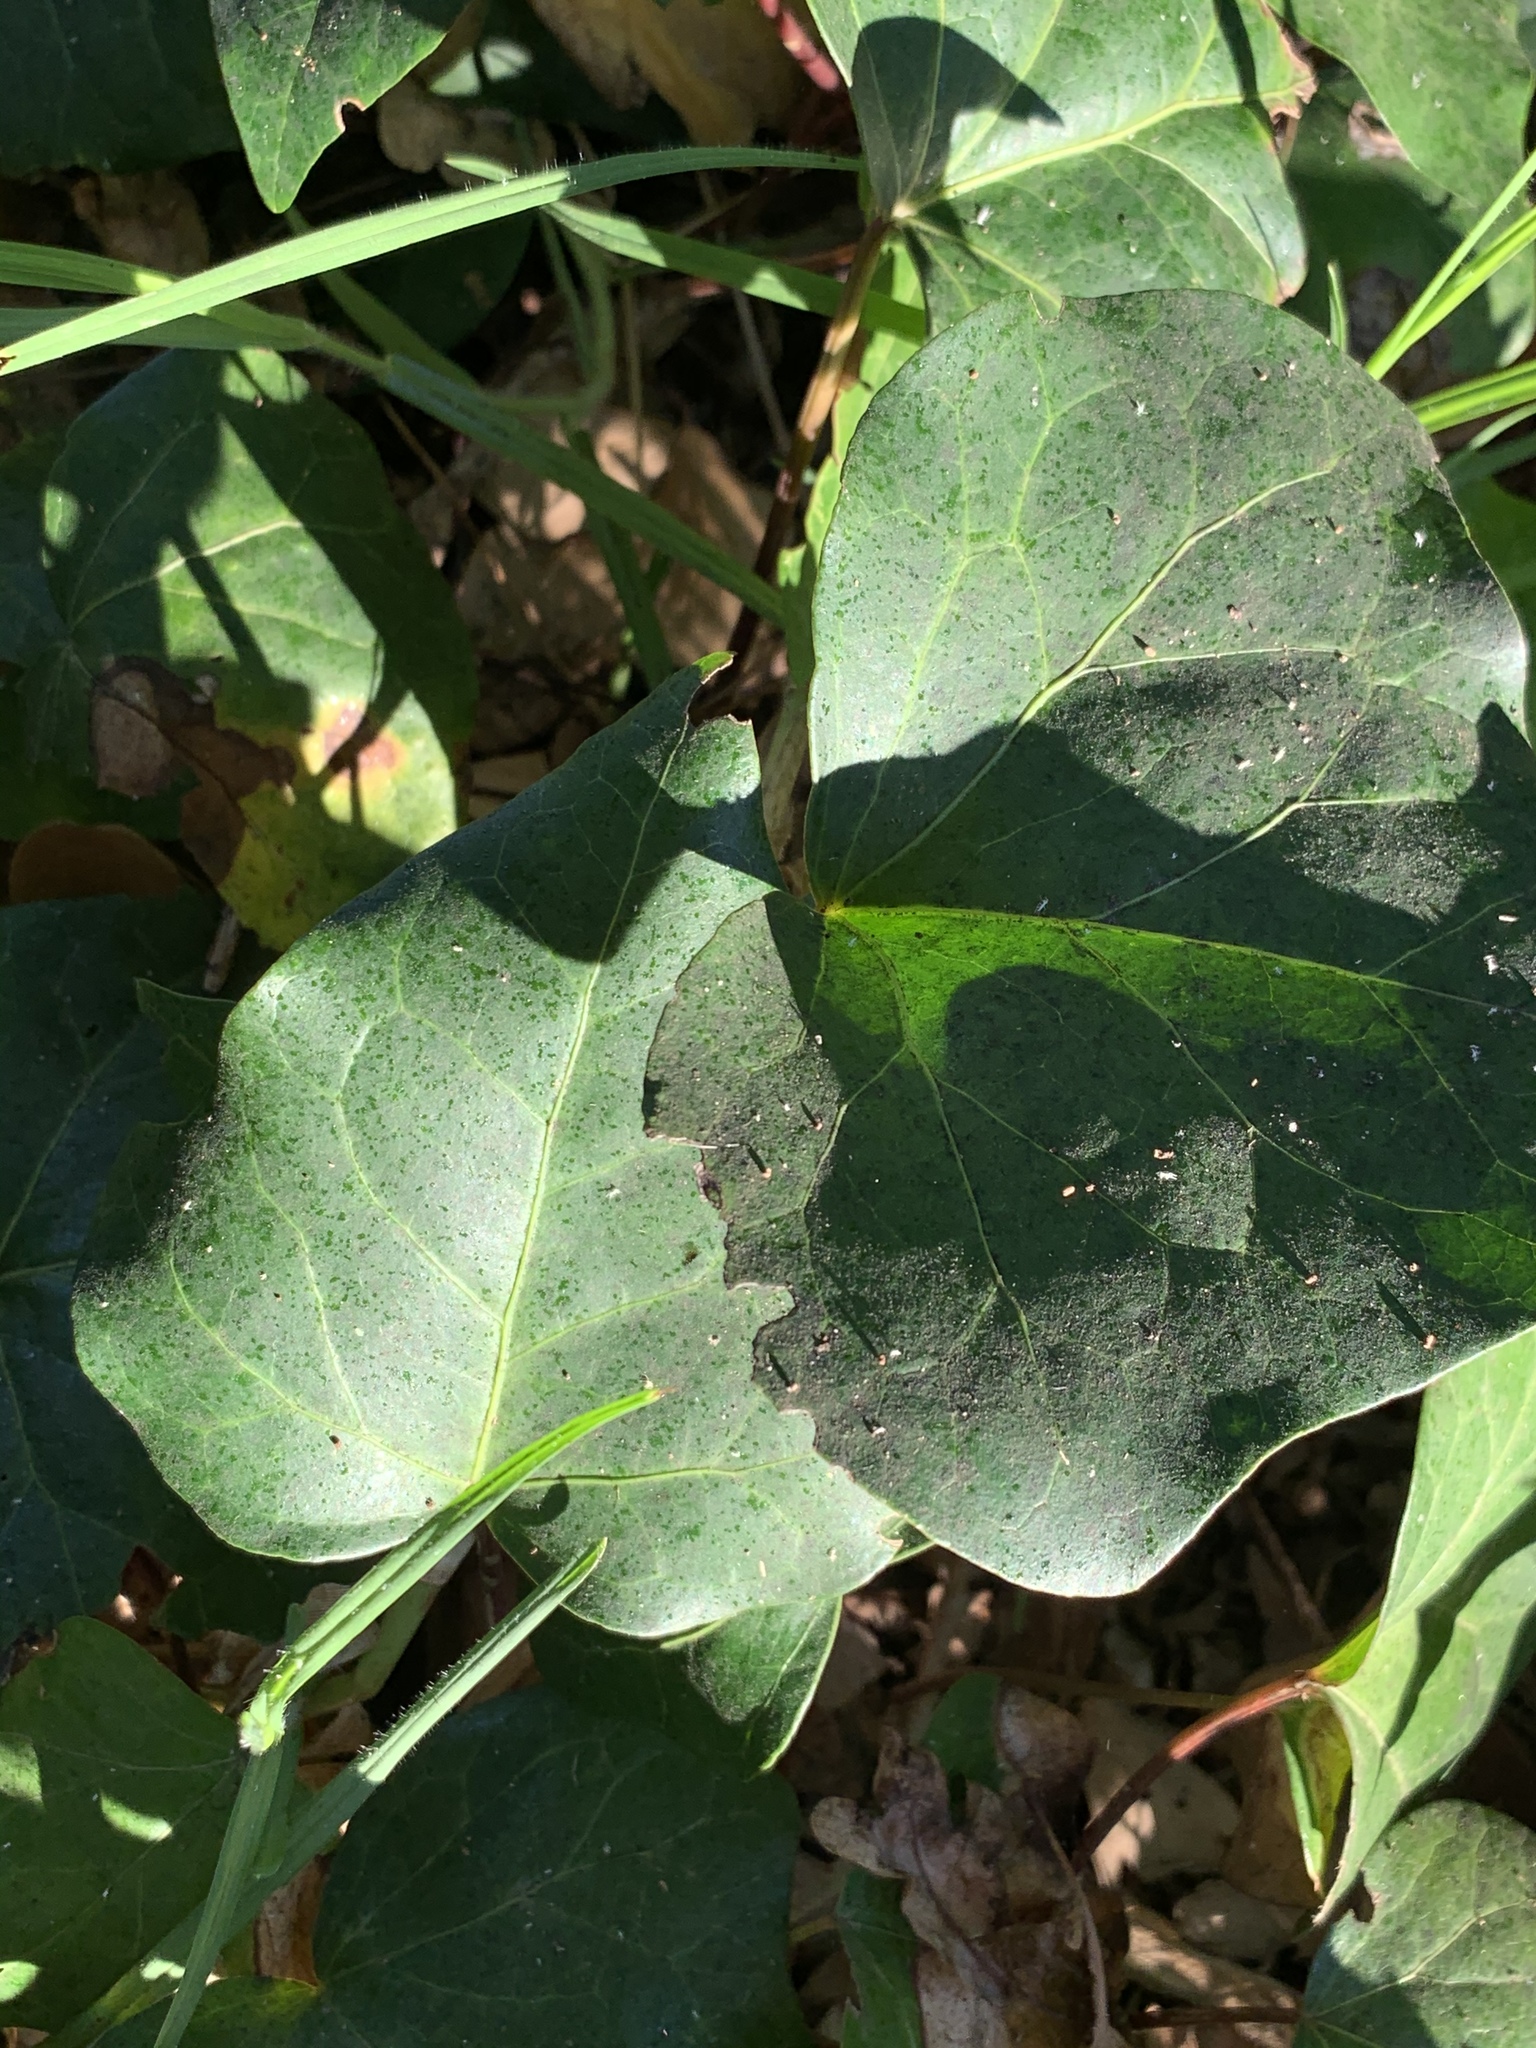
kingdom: Plantae
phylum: Tracheophyta
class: Magnoliopsida
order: Apiales
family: Araliaceae
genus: Hedera
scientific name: Hedera canariensis
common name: Madeira ivy
